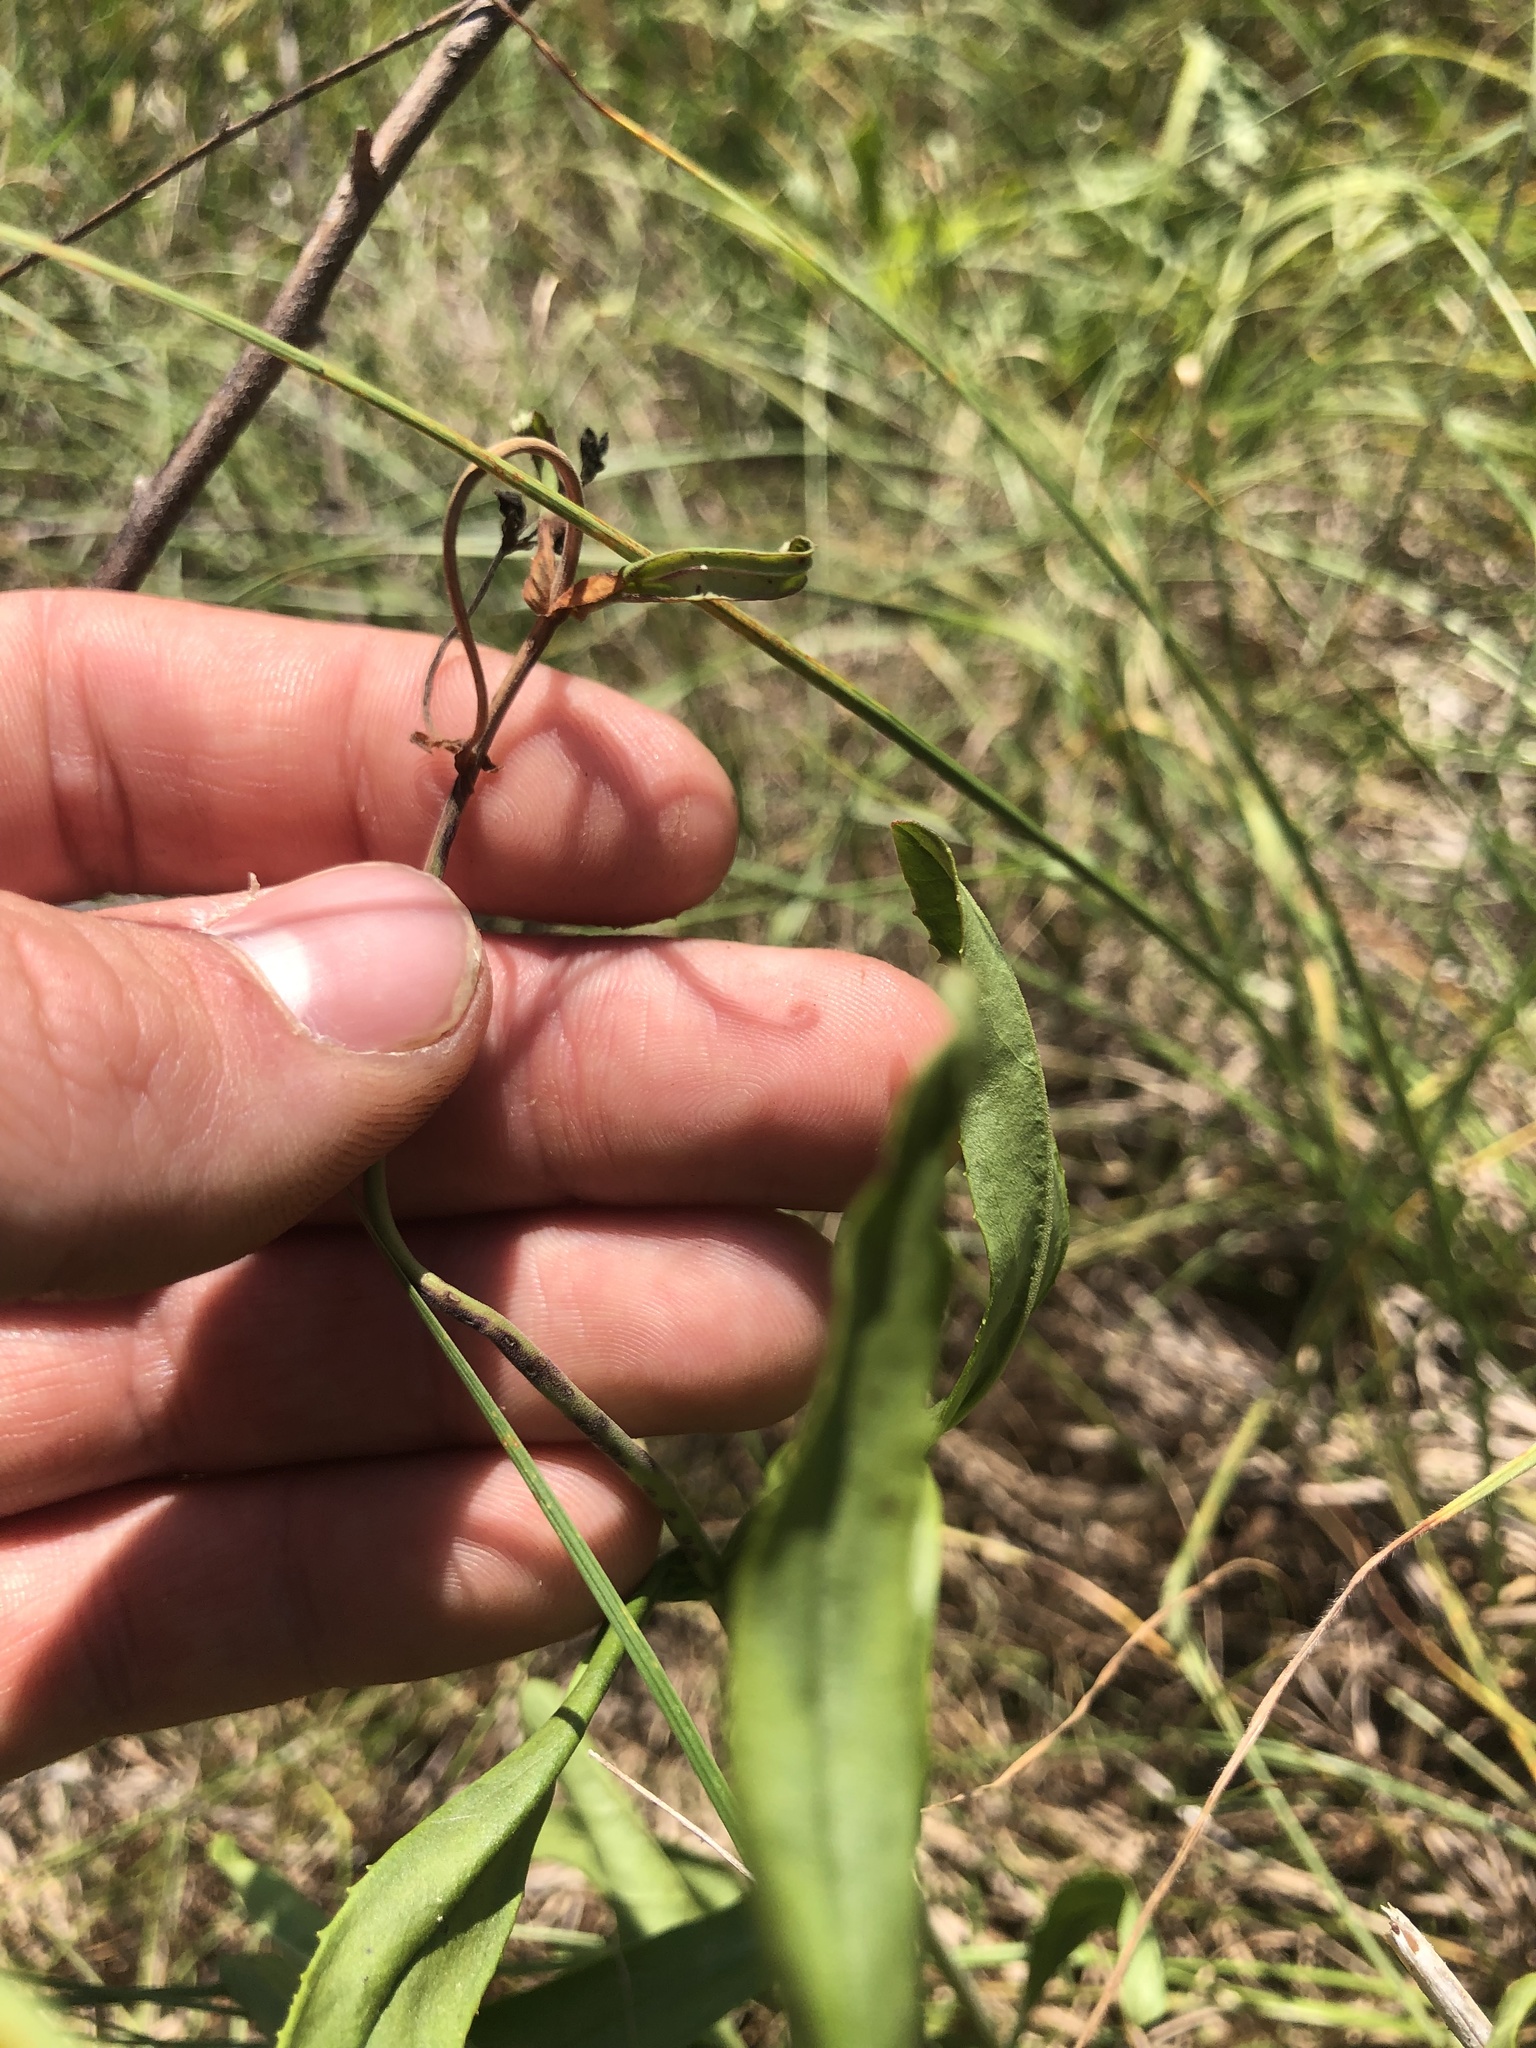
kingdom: Plantae
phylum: Tracheophyta
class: Magnoliopsida
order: Lamiales
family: Plantaginaceae
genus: Penstemon
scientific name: Penstemon laxiflorus
